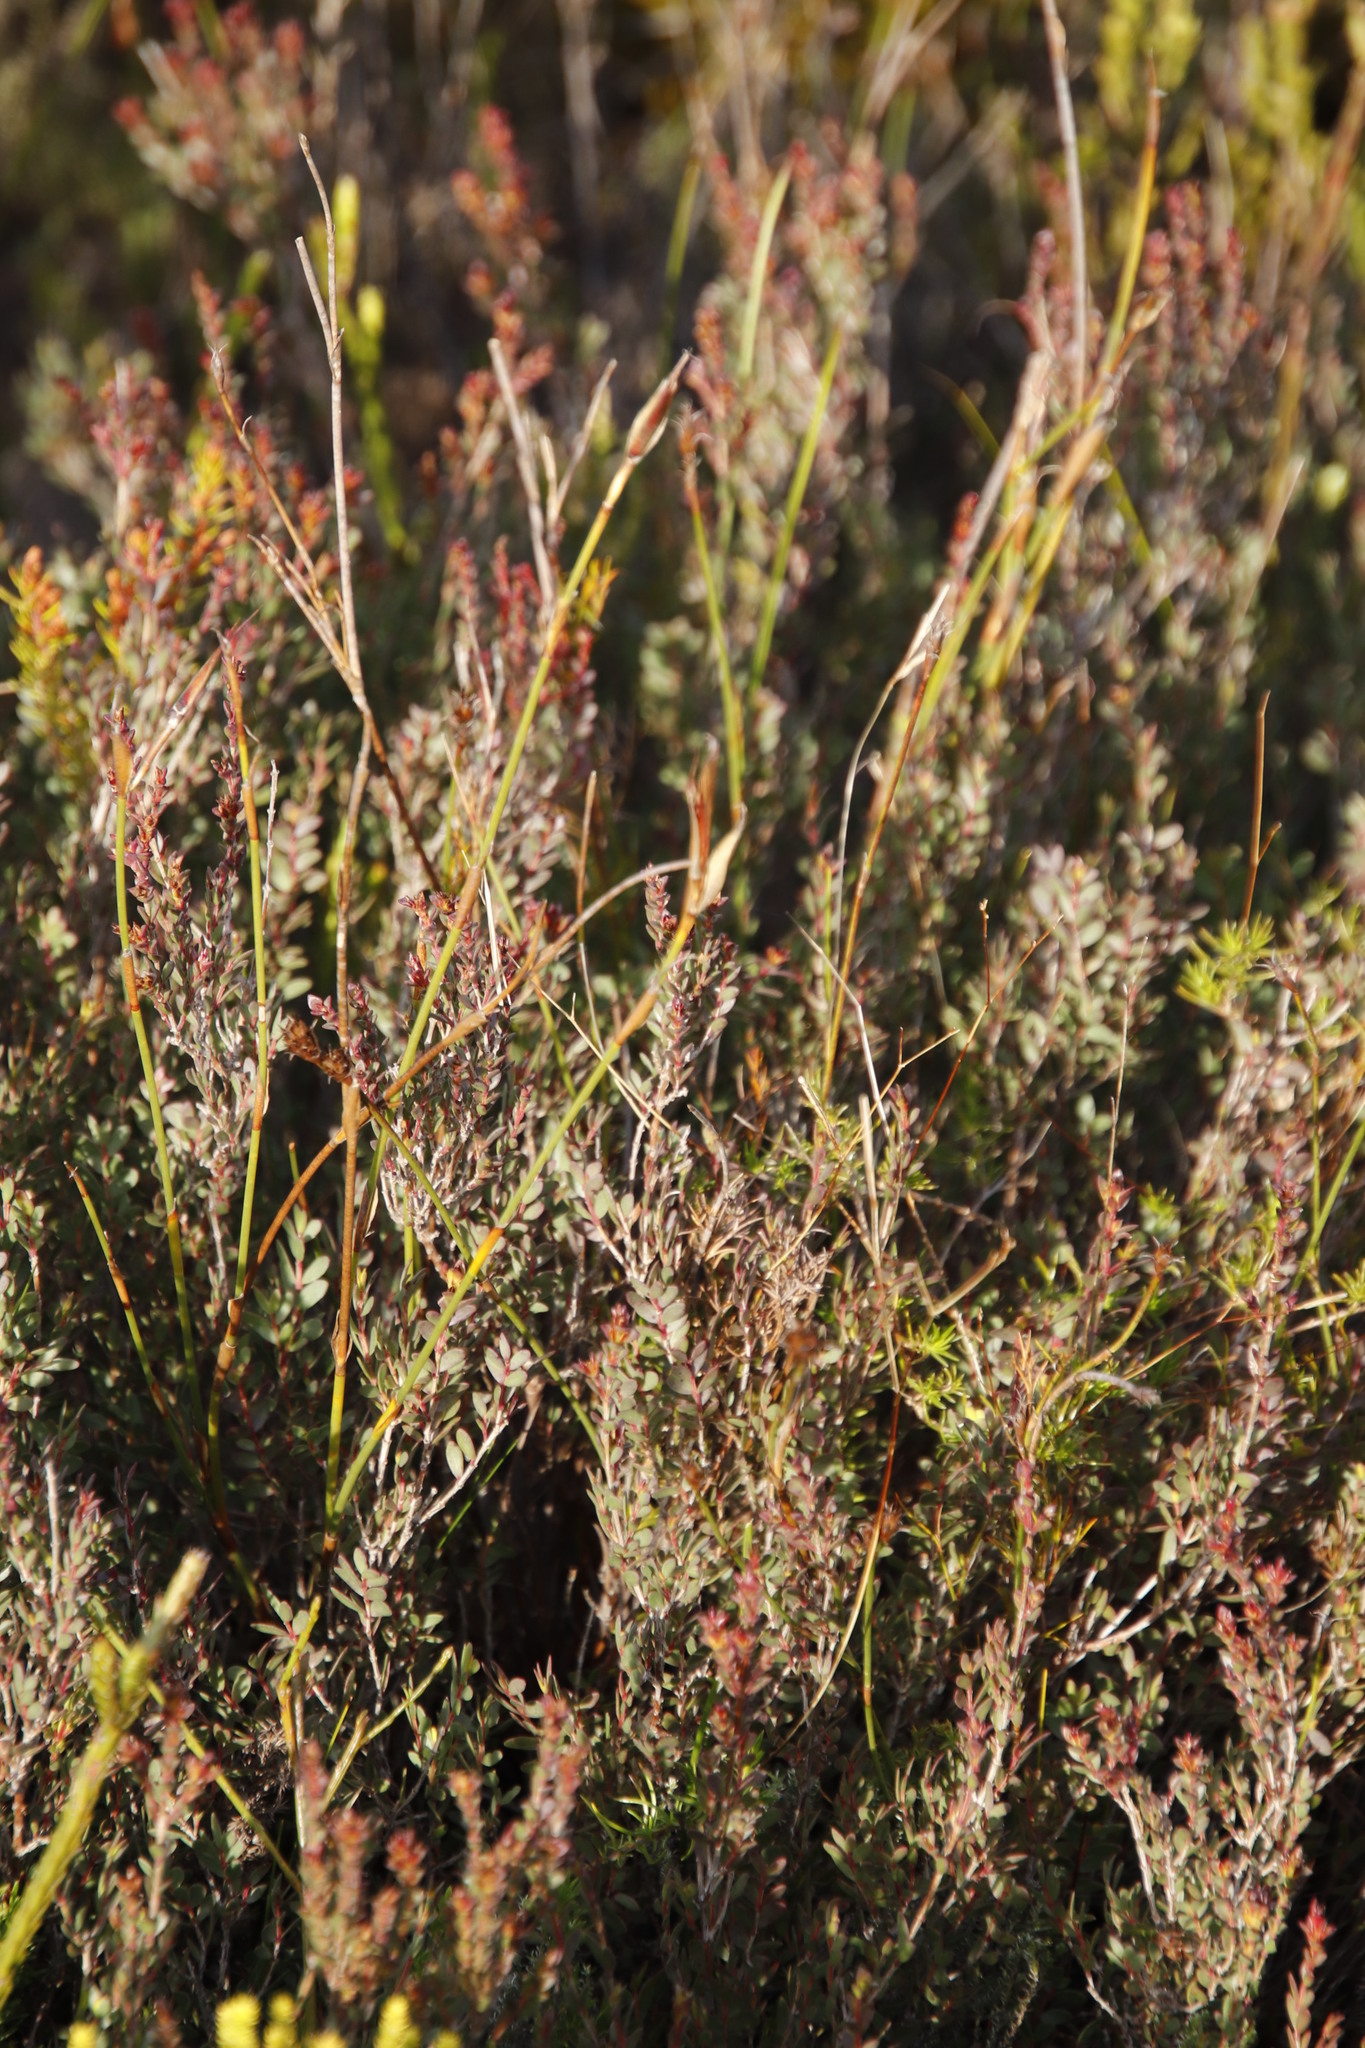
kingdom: Plantae
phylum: Tracheophyta
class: Liliopsida
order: Poales
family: Restionaceae
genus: Thamnochortus
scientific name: Thamnochortus fruticosus
